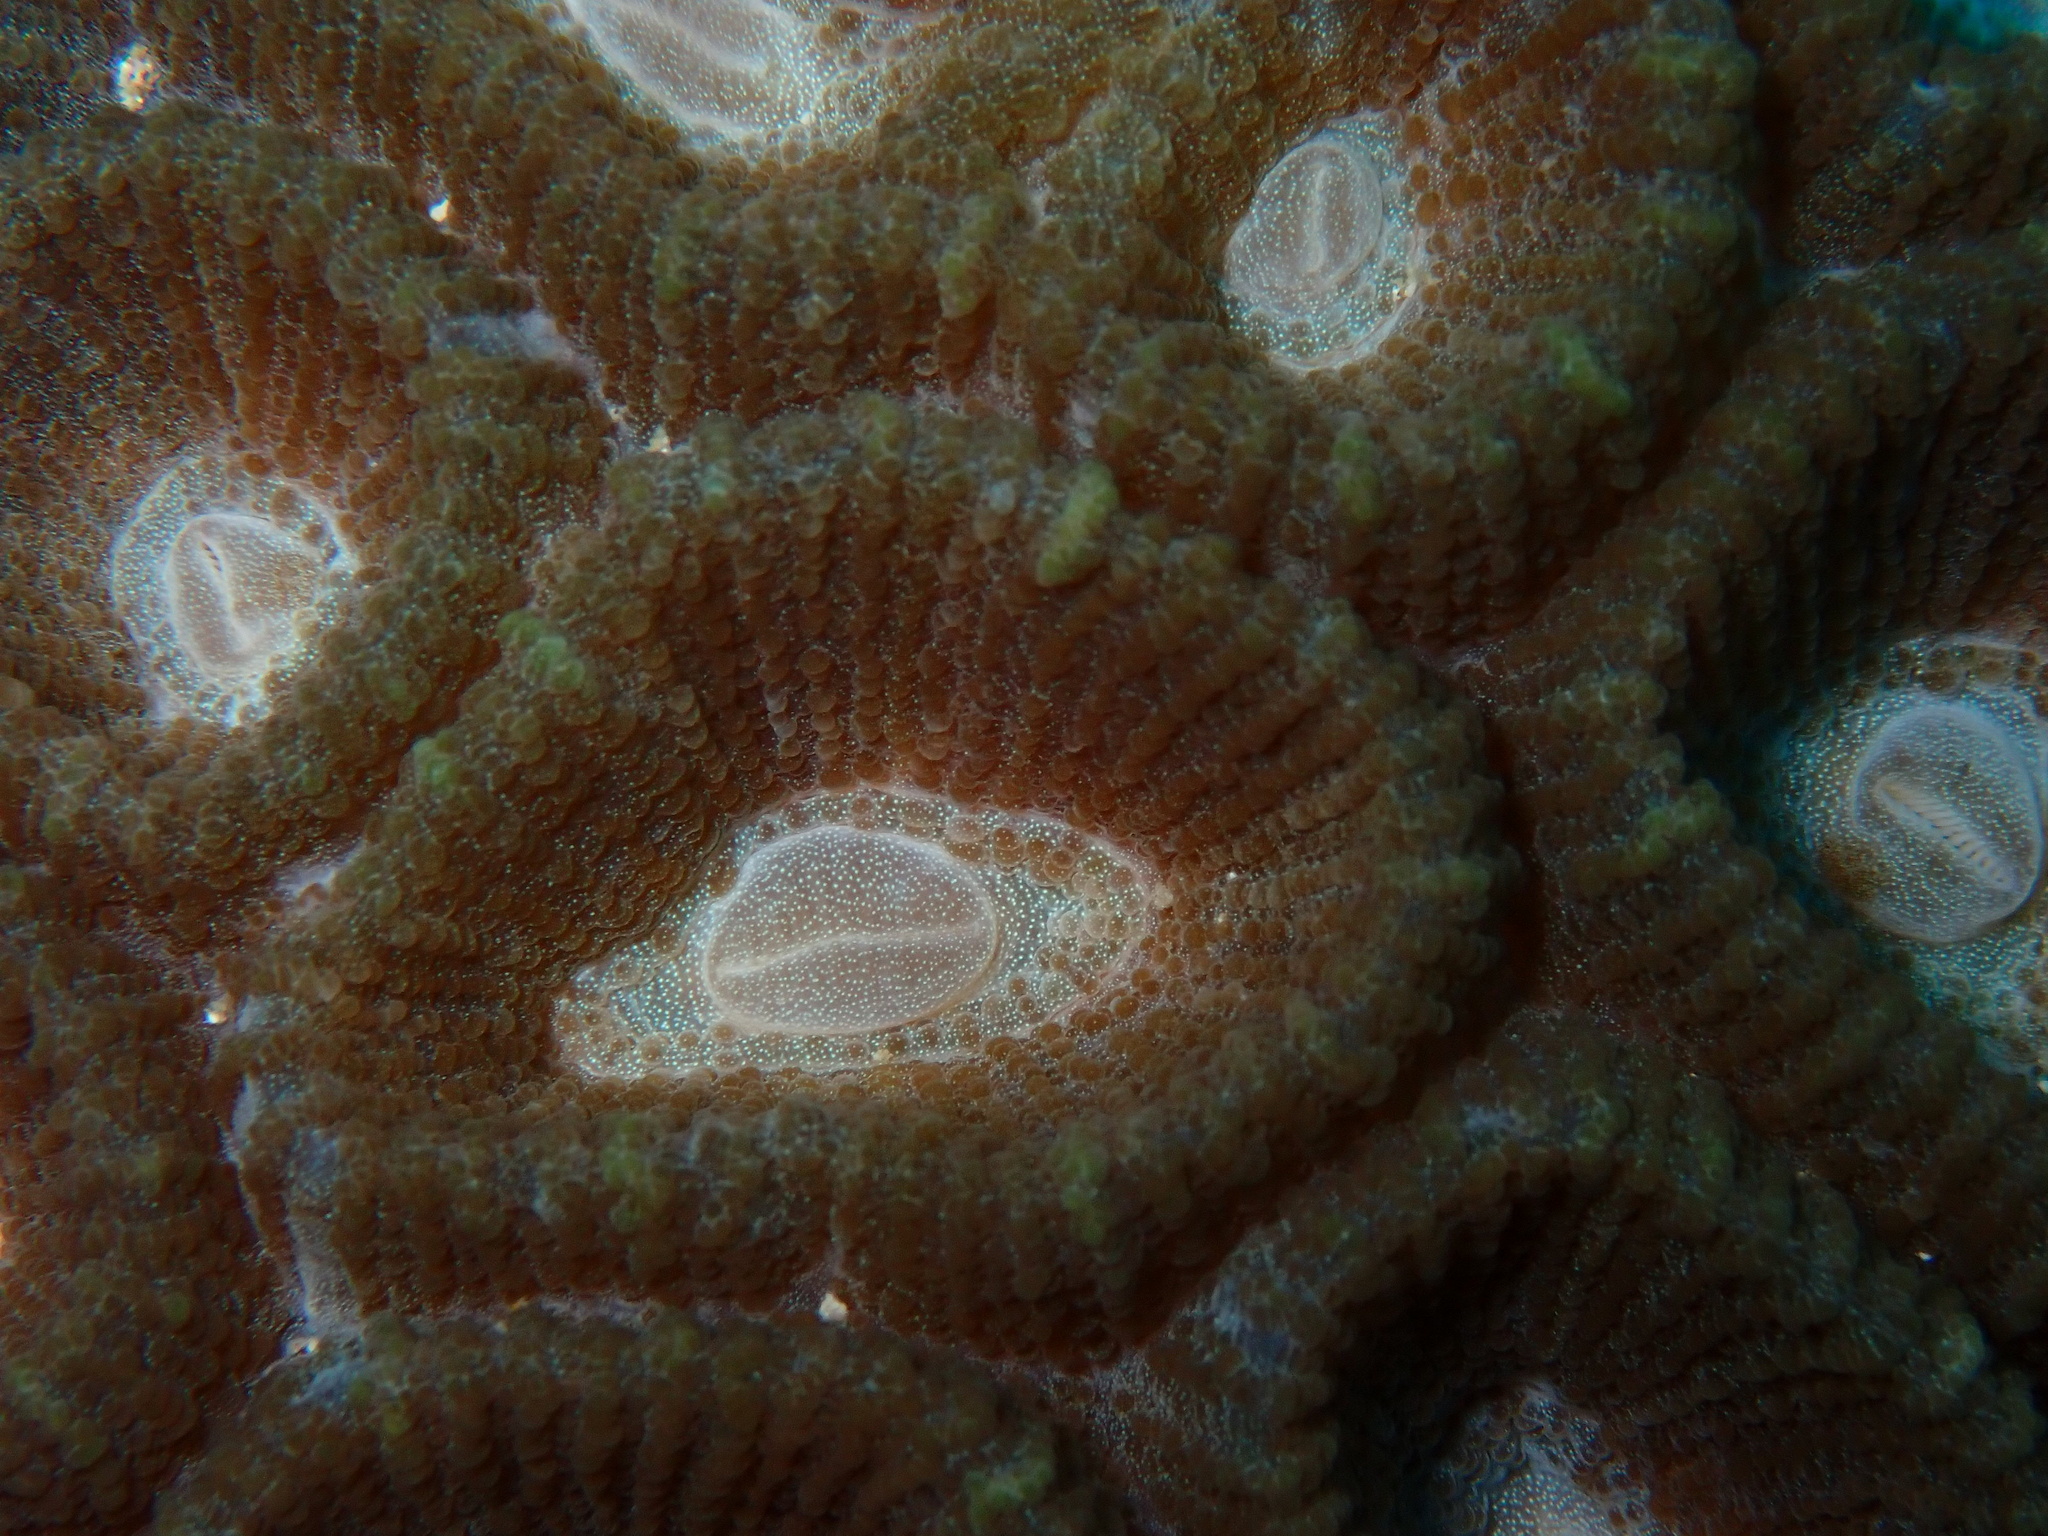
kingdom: Animalia
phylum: Cnidaria
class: Anthozoa
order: Scleractinia
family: Merulinidae
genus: Astraeosmilia
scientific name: Astraeosmilia maxima
